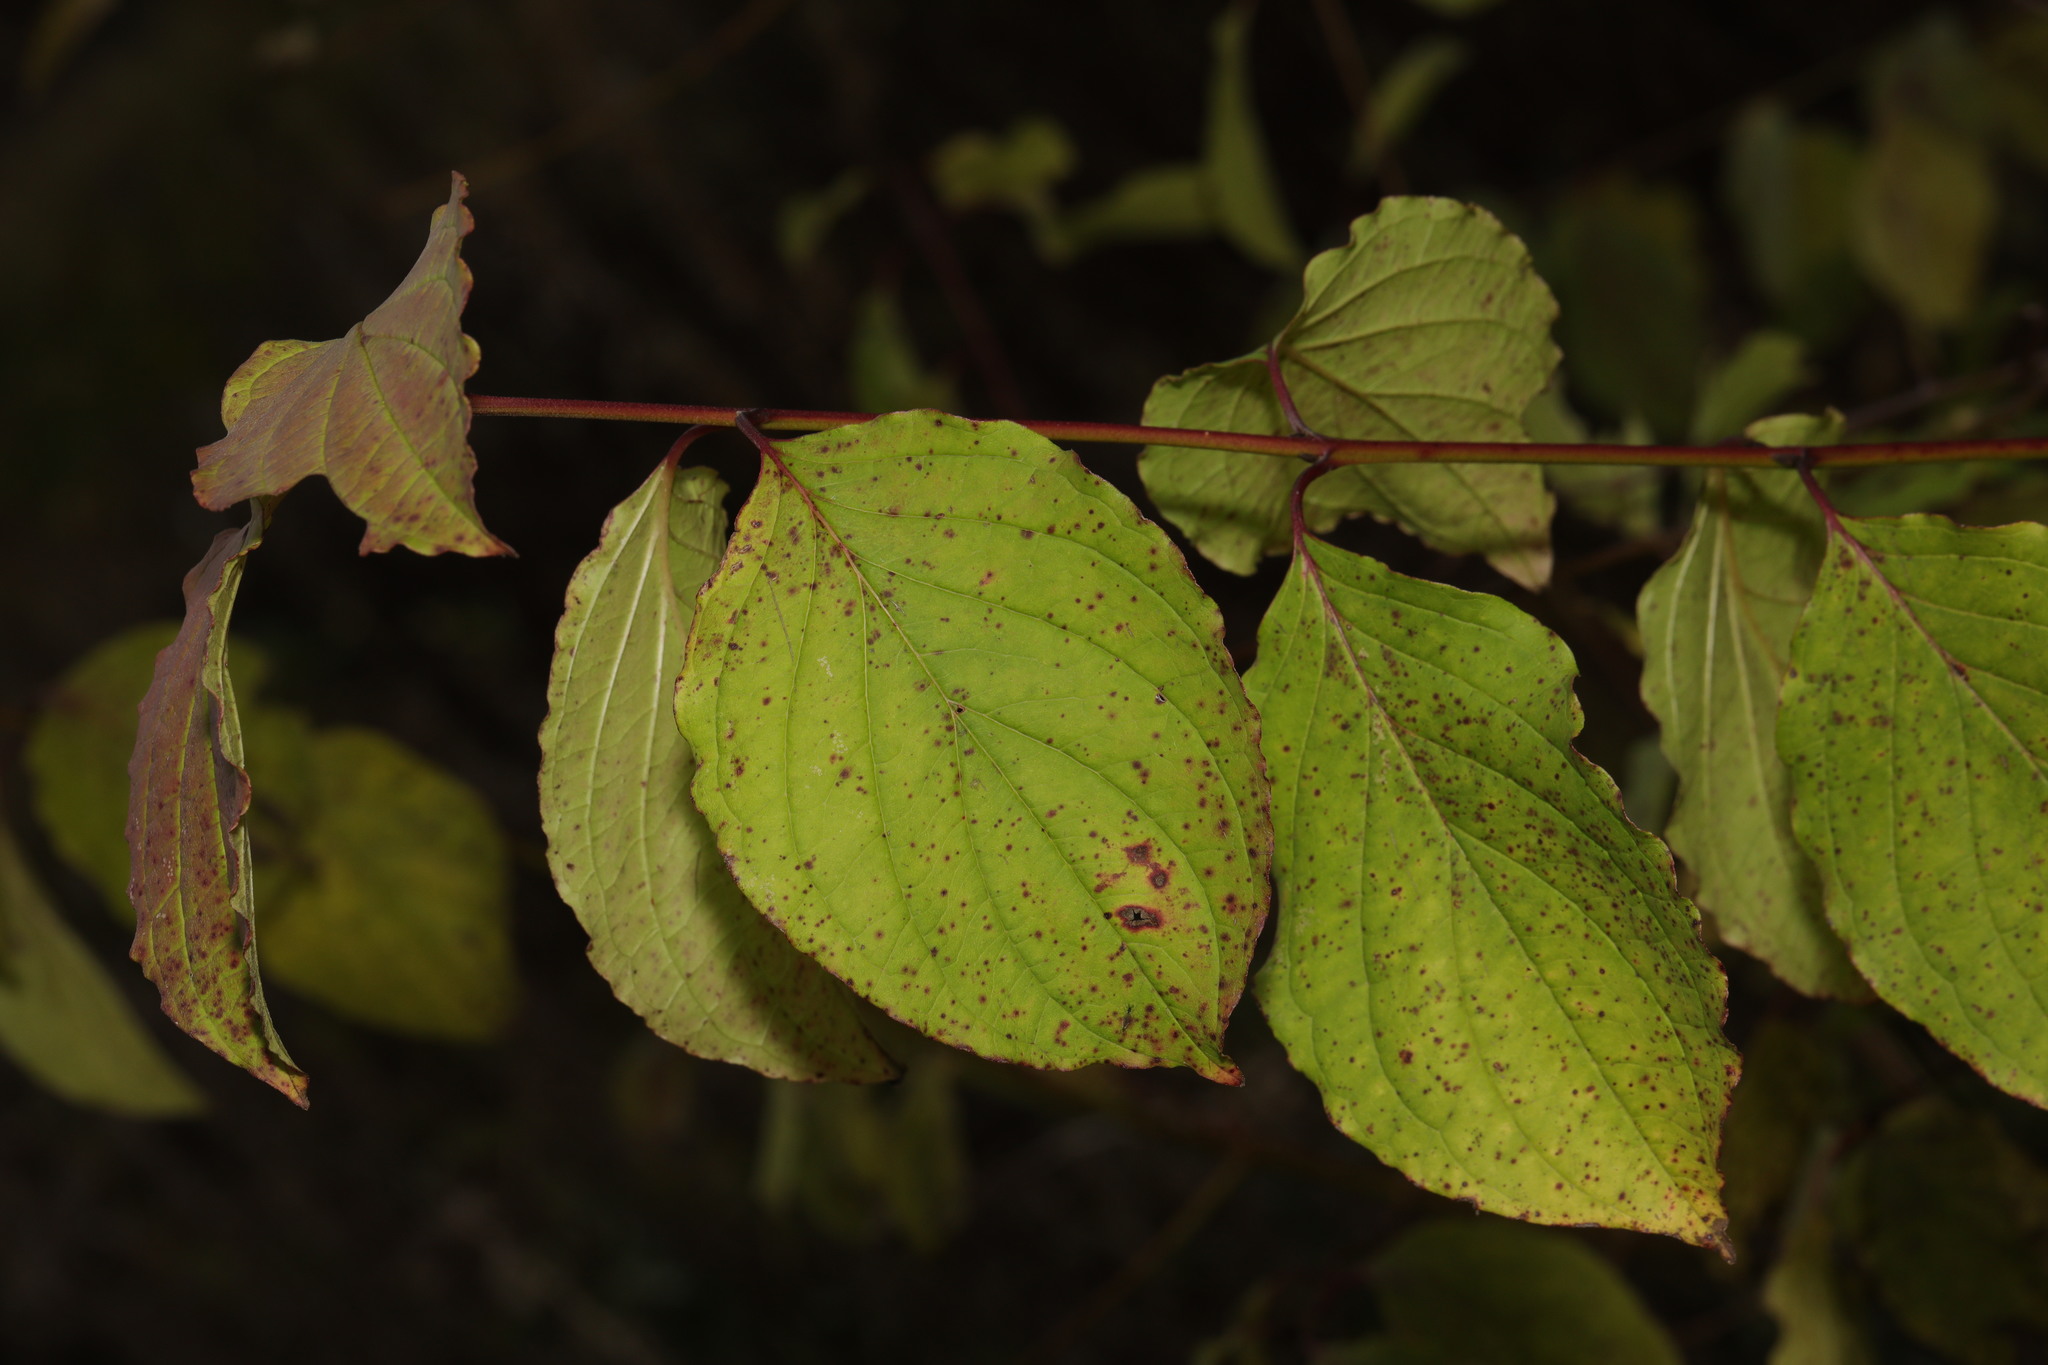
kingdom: Plantae
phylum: Tracheophyta
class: Magnoliopsida
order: Cornales
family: Cornaceae
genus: Cornus
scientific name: Cornus sanguinea
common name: Dogwood
